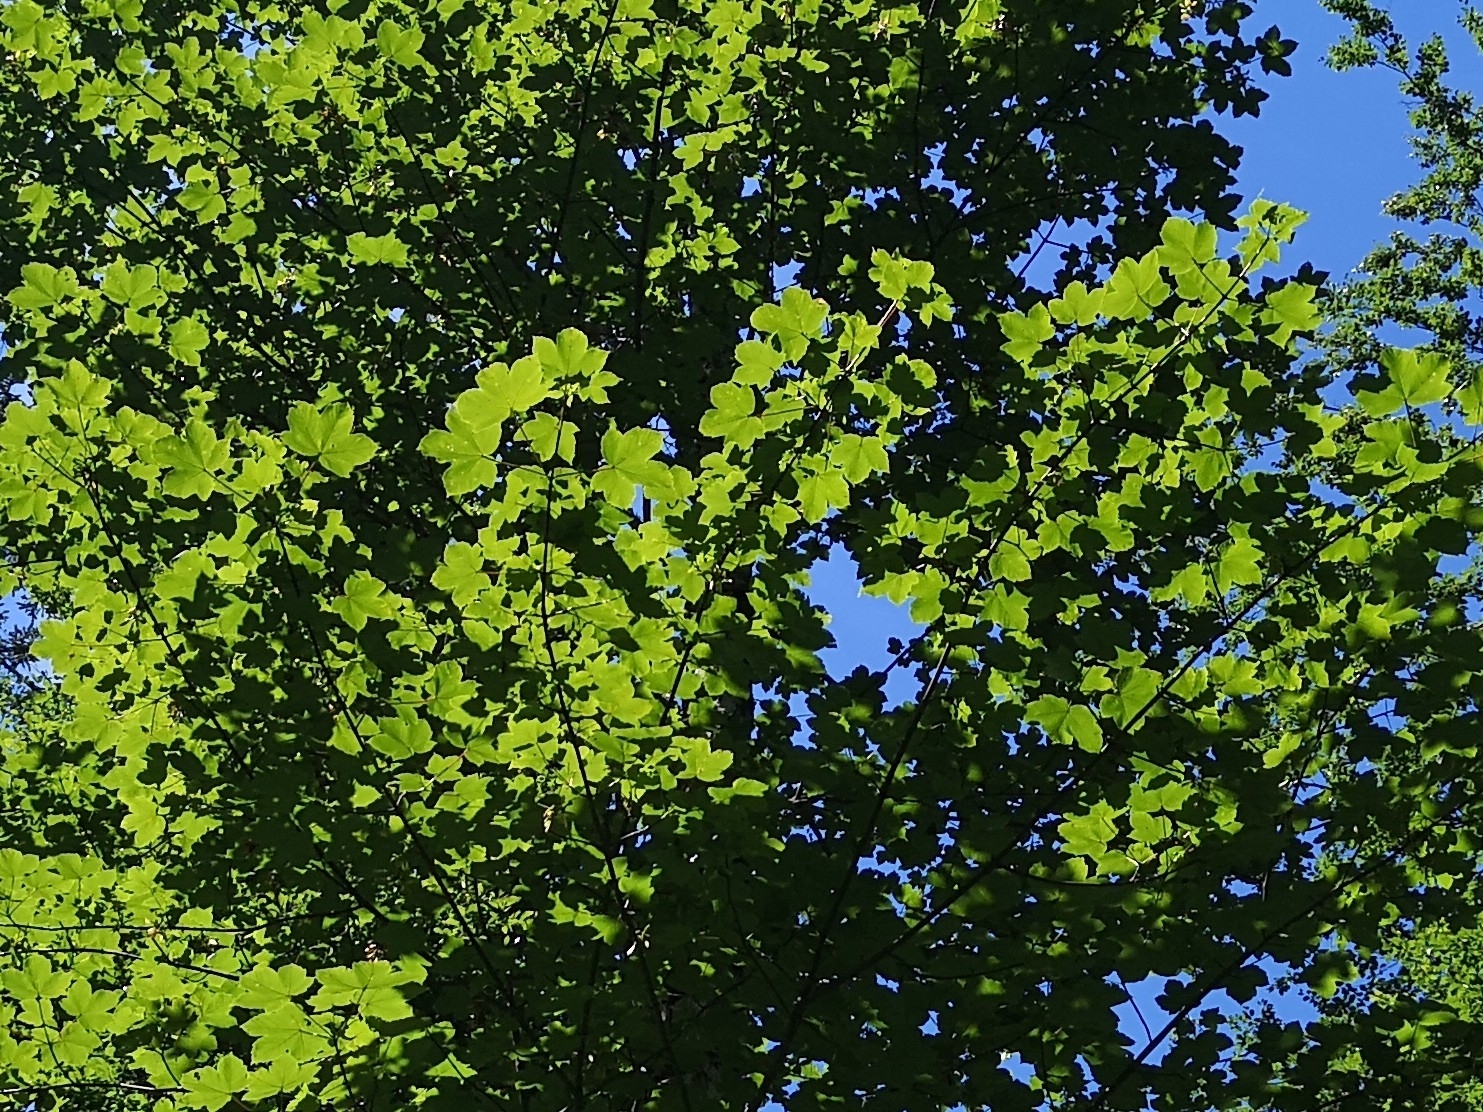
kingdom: Plantae
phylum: Tracheophyta
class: Magnoliopsida
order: Sapindales
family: Sapindaceae
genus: Acer
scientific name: Acer pseudoplatanus
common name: Sycamore
